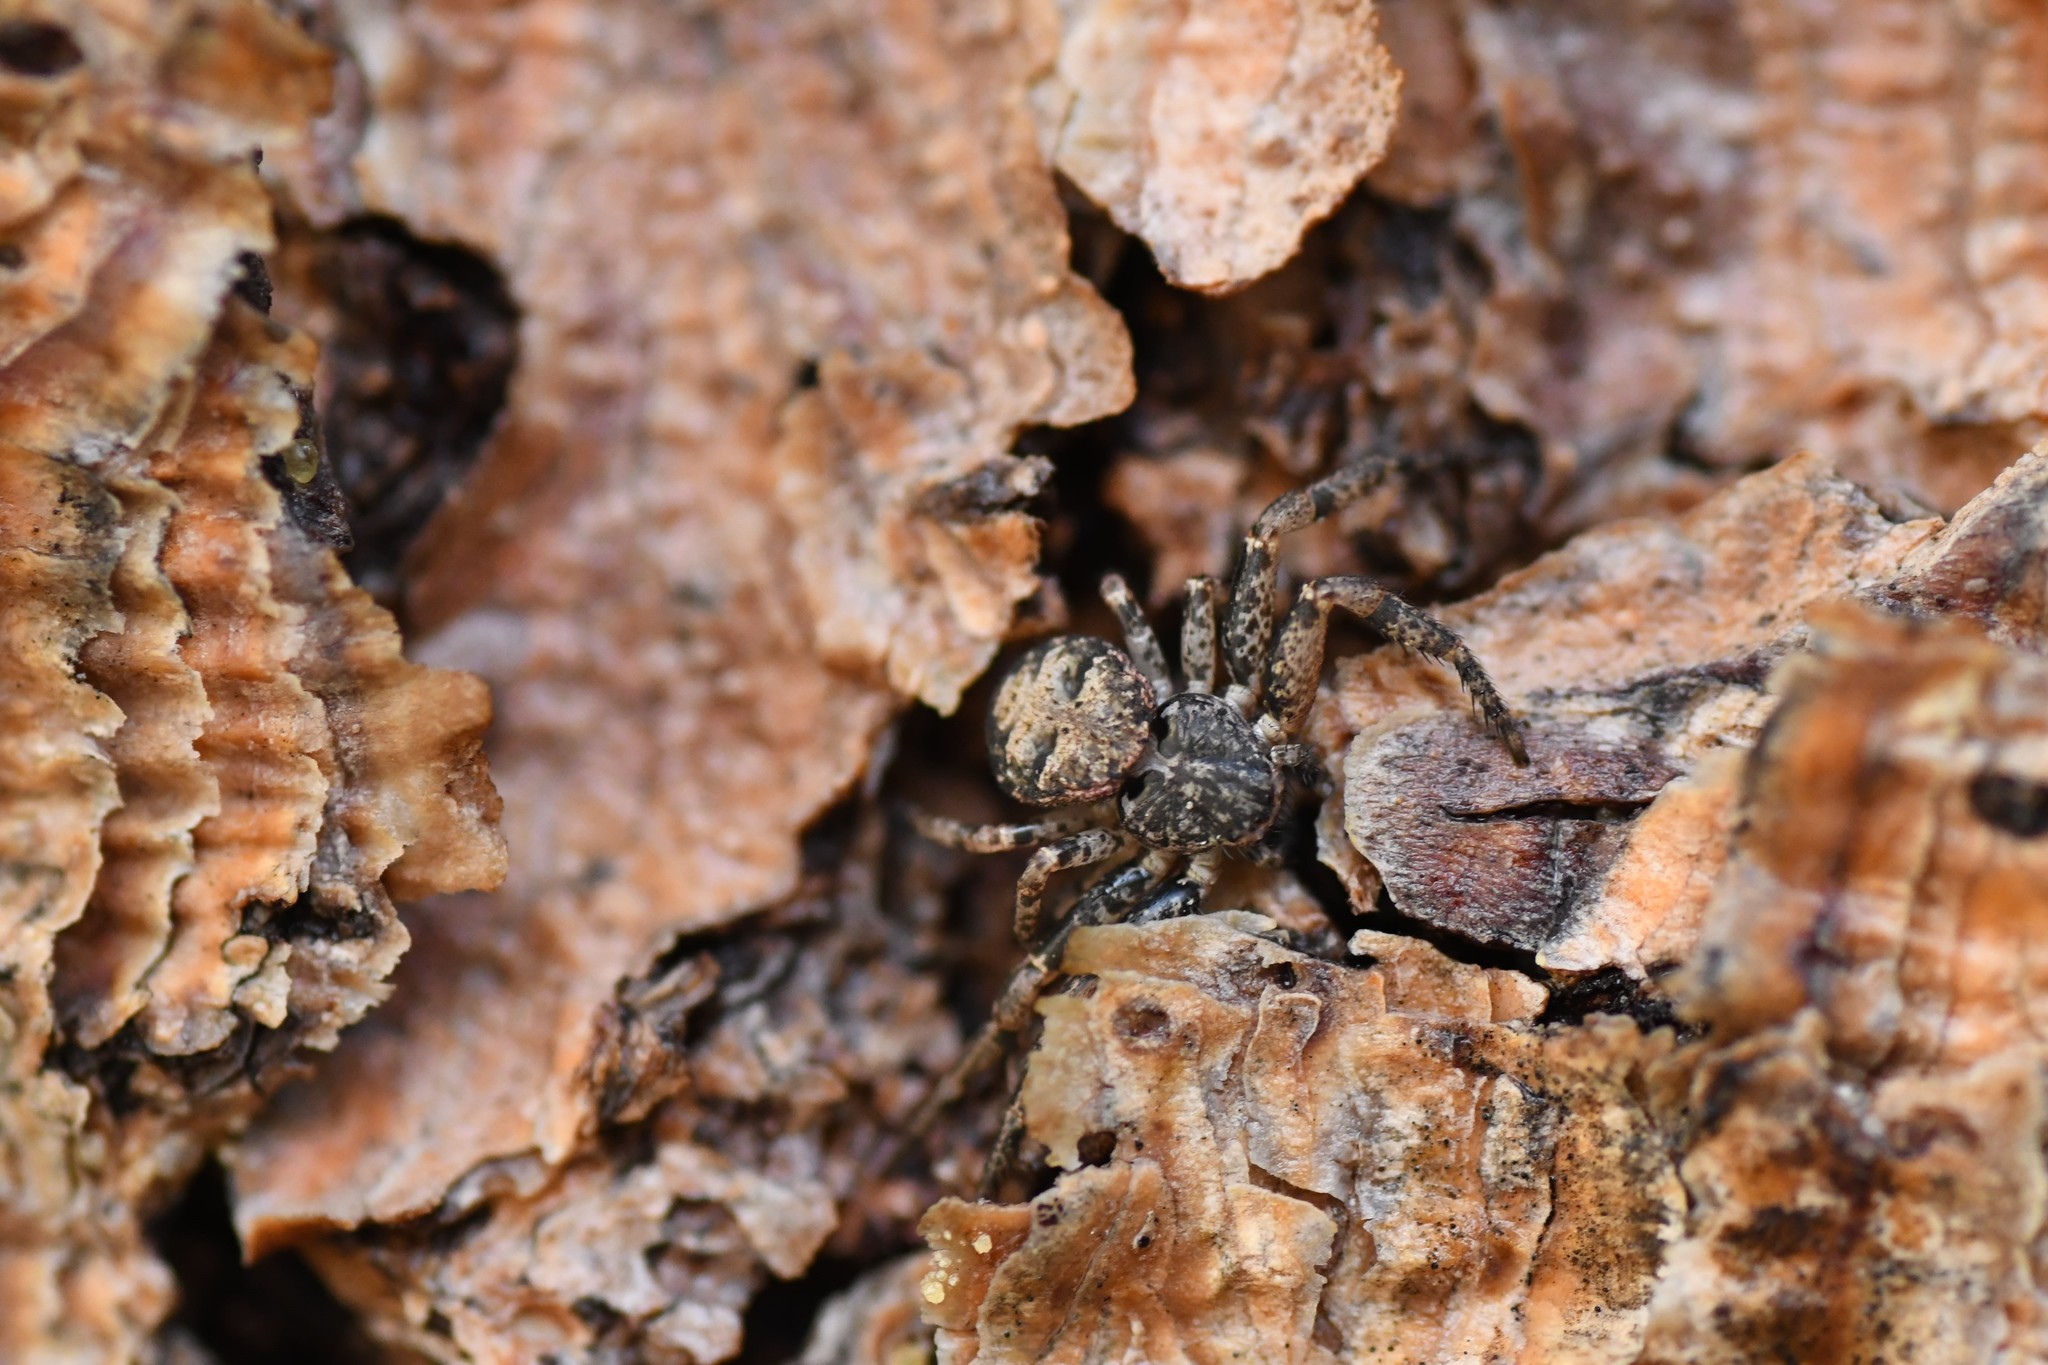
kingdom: Animalia
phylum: Arthropoda
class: Arachnida
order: Araneae
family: Thomisidae
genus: Bassaniana
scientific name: Bassaniana utahensis
